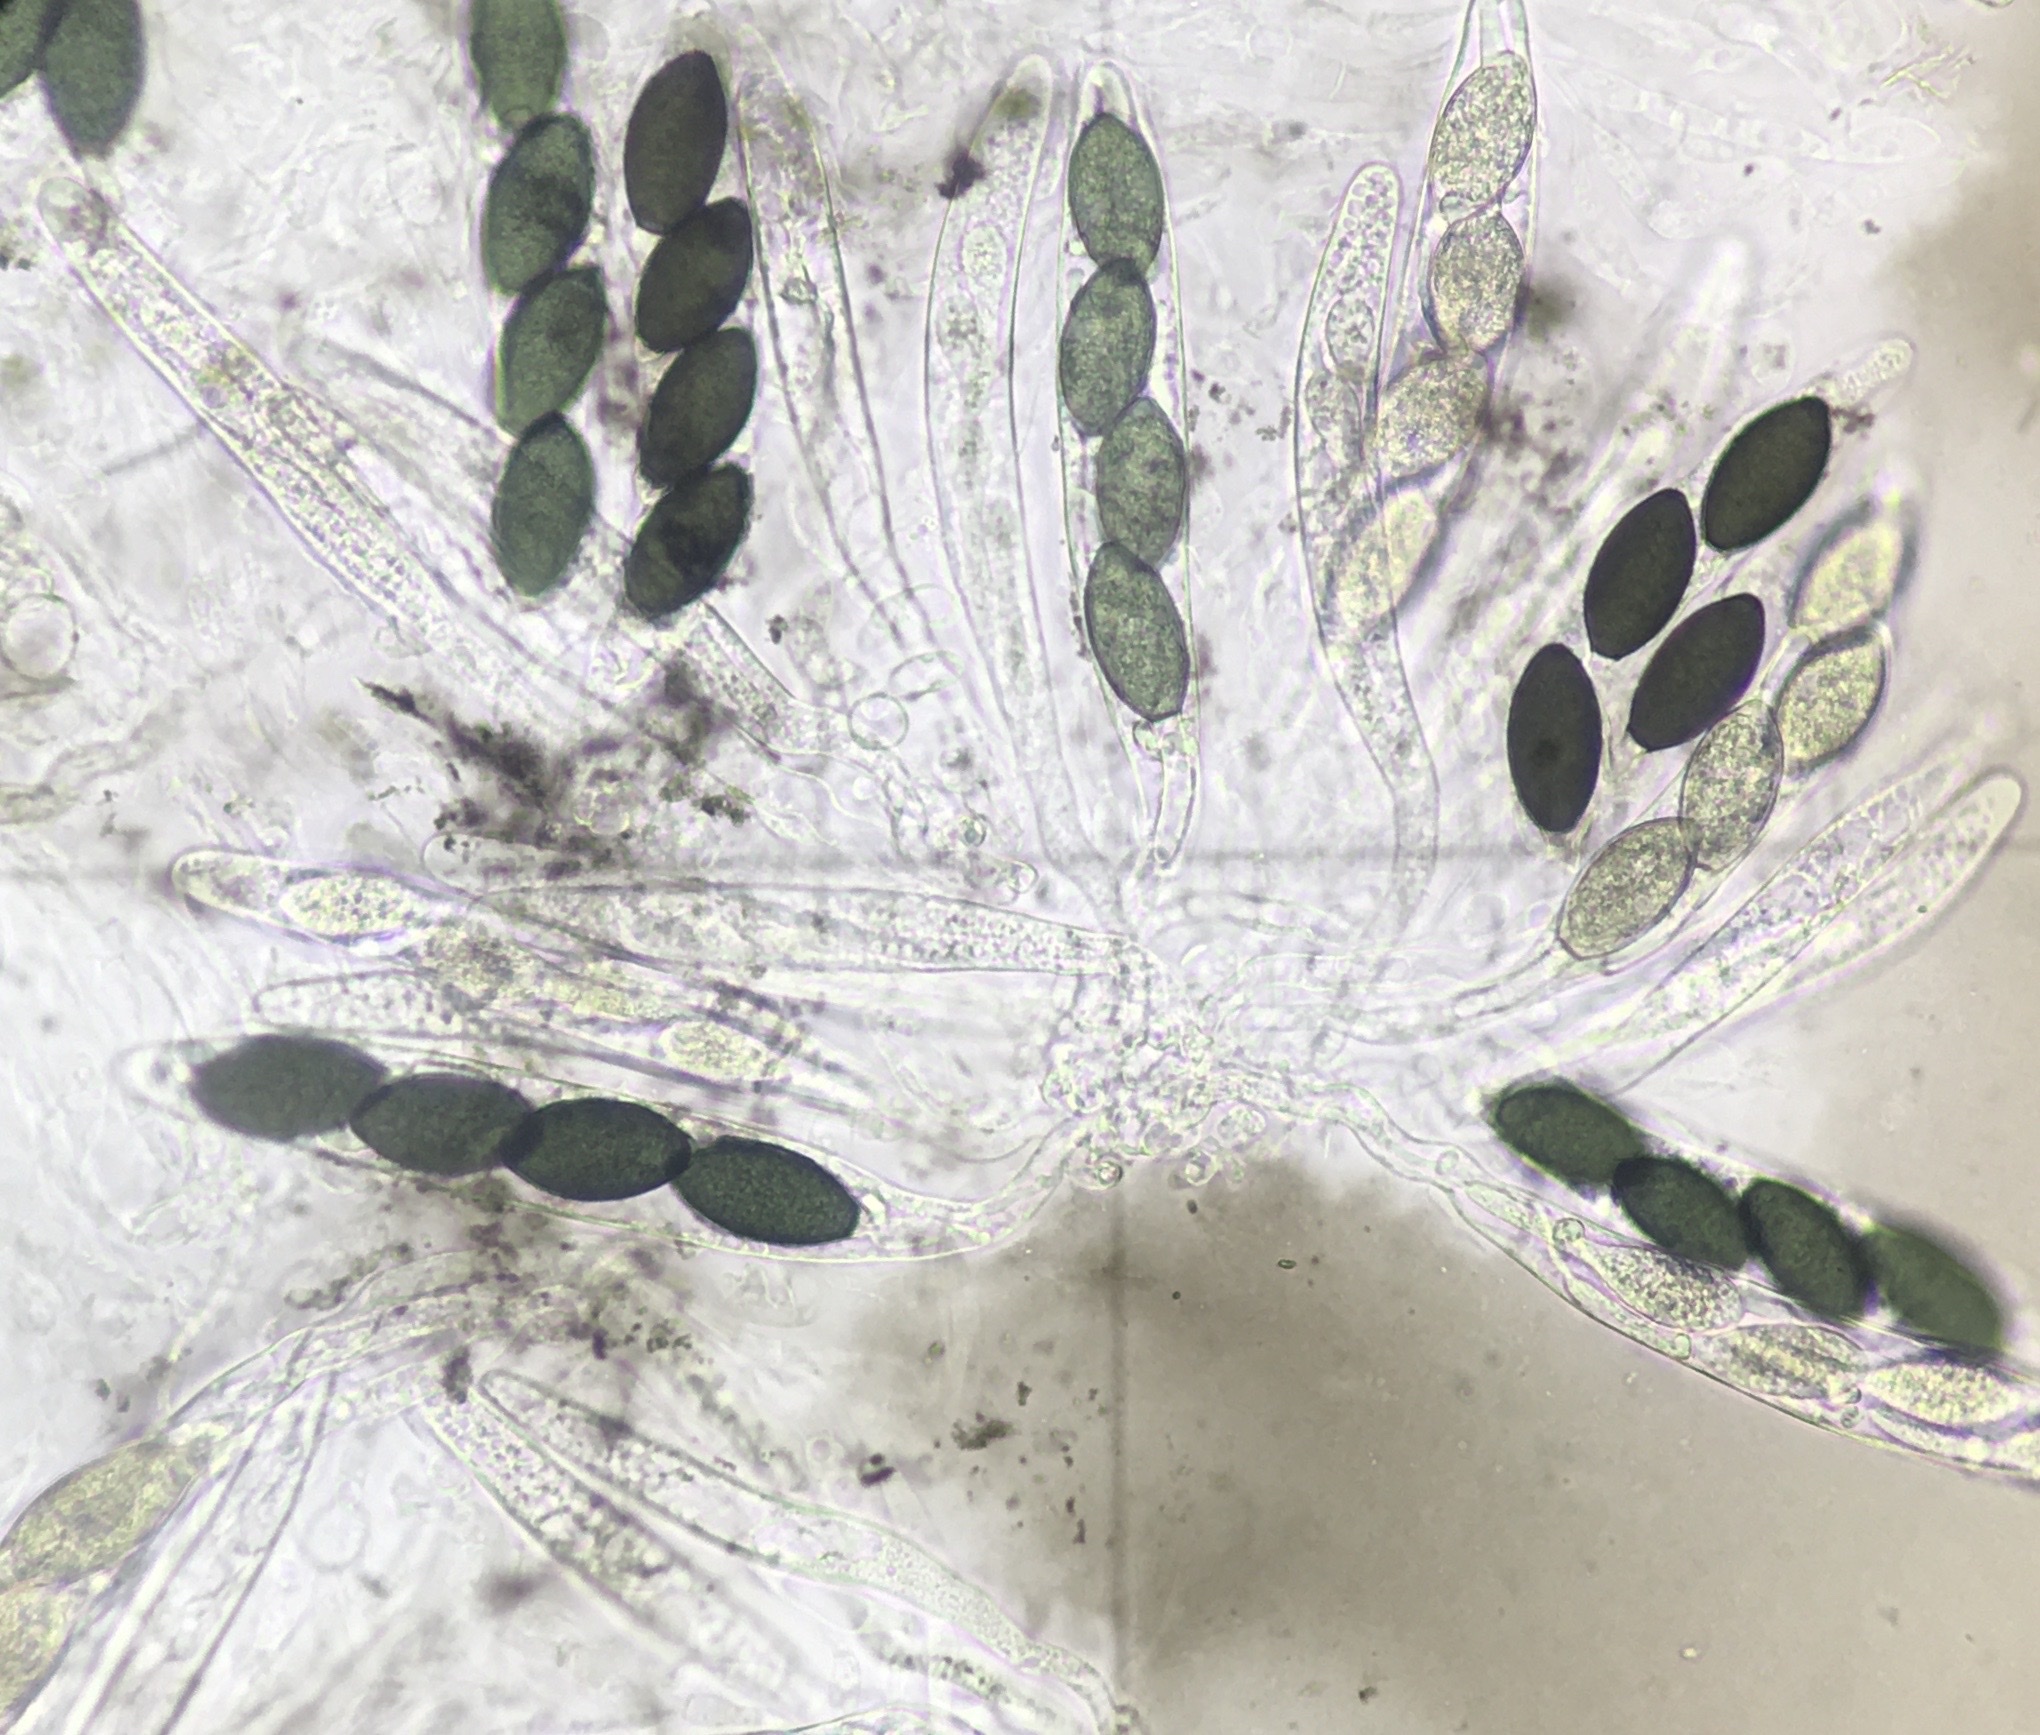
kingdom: Fungi
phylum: Ascomycota
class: Sordariomycetes
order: Sordariales
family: Podosporaceae
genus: Triangularia
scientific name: Triangularia anserina
